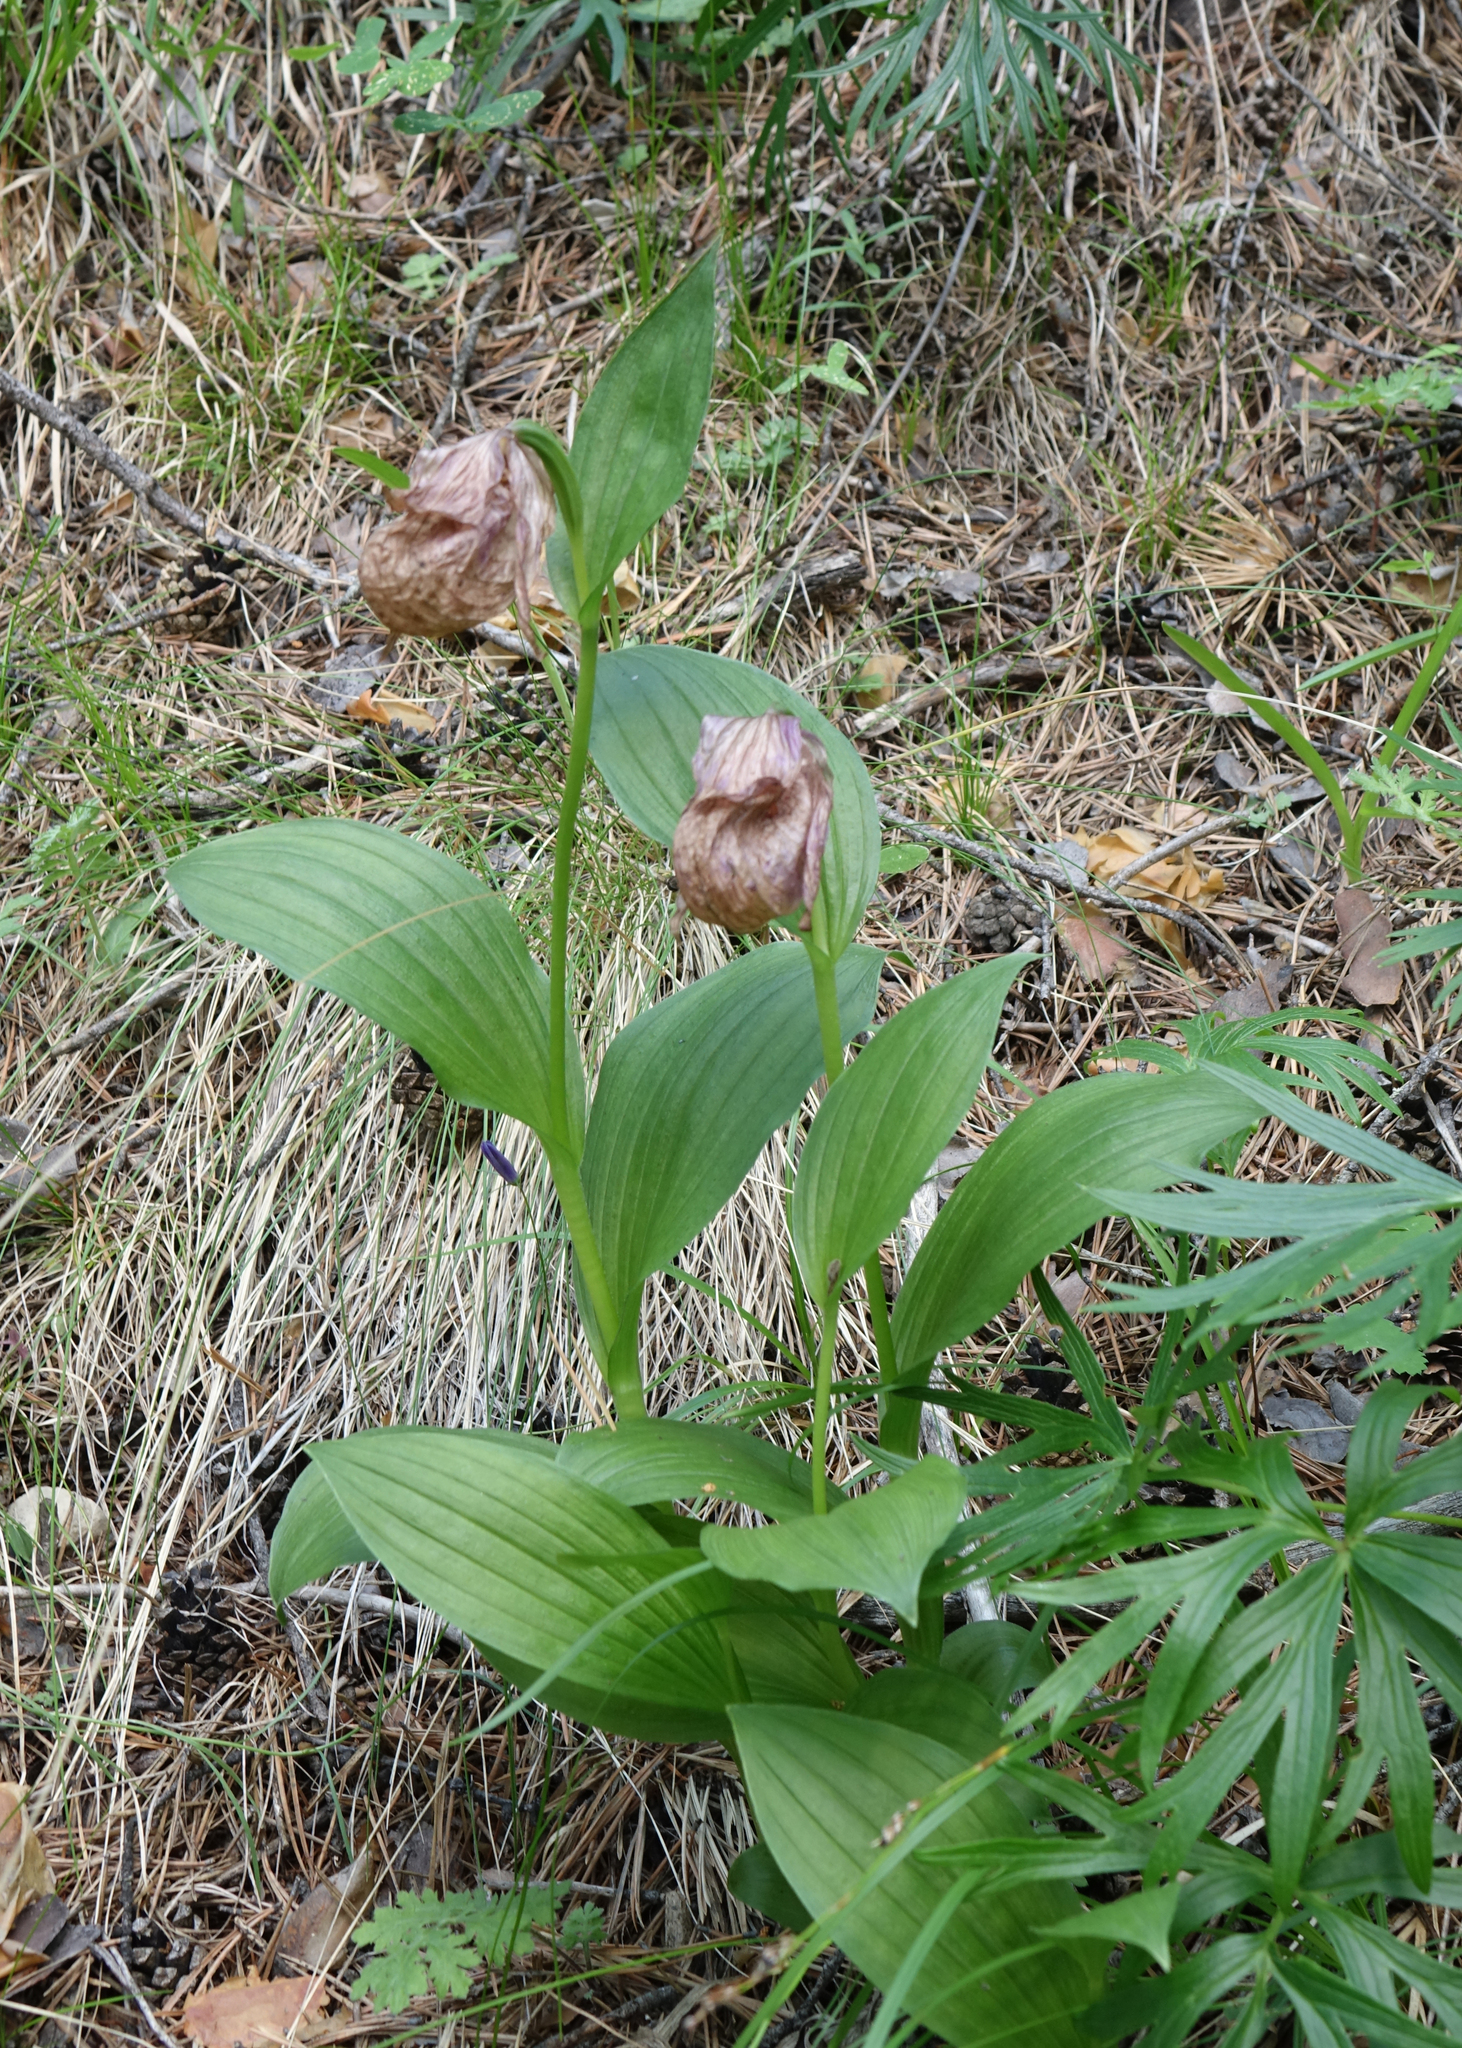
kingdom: Plantae
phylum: Tracheophyta
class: Liliopsida
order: Asparagales
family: Orchidaceae
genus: Cypripedium
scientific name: Cypripedium macranthos
